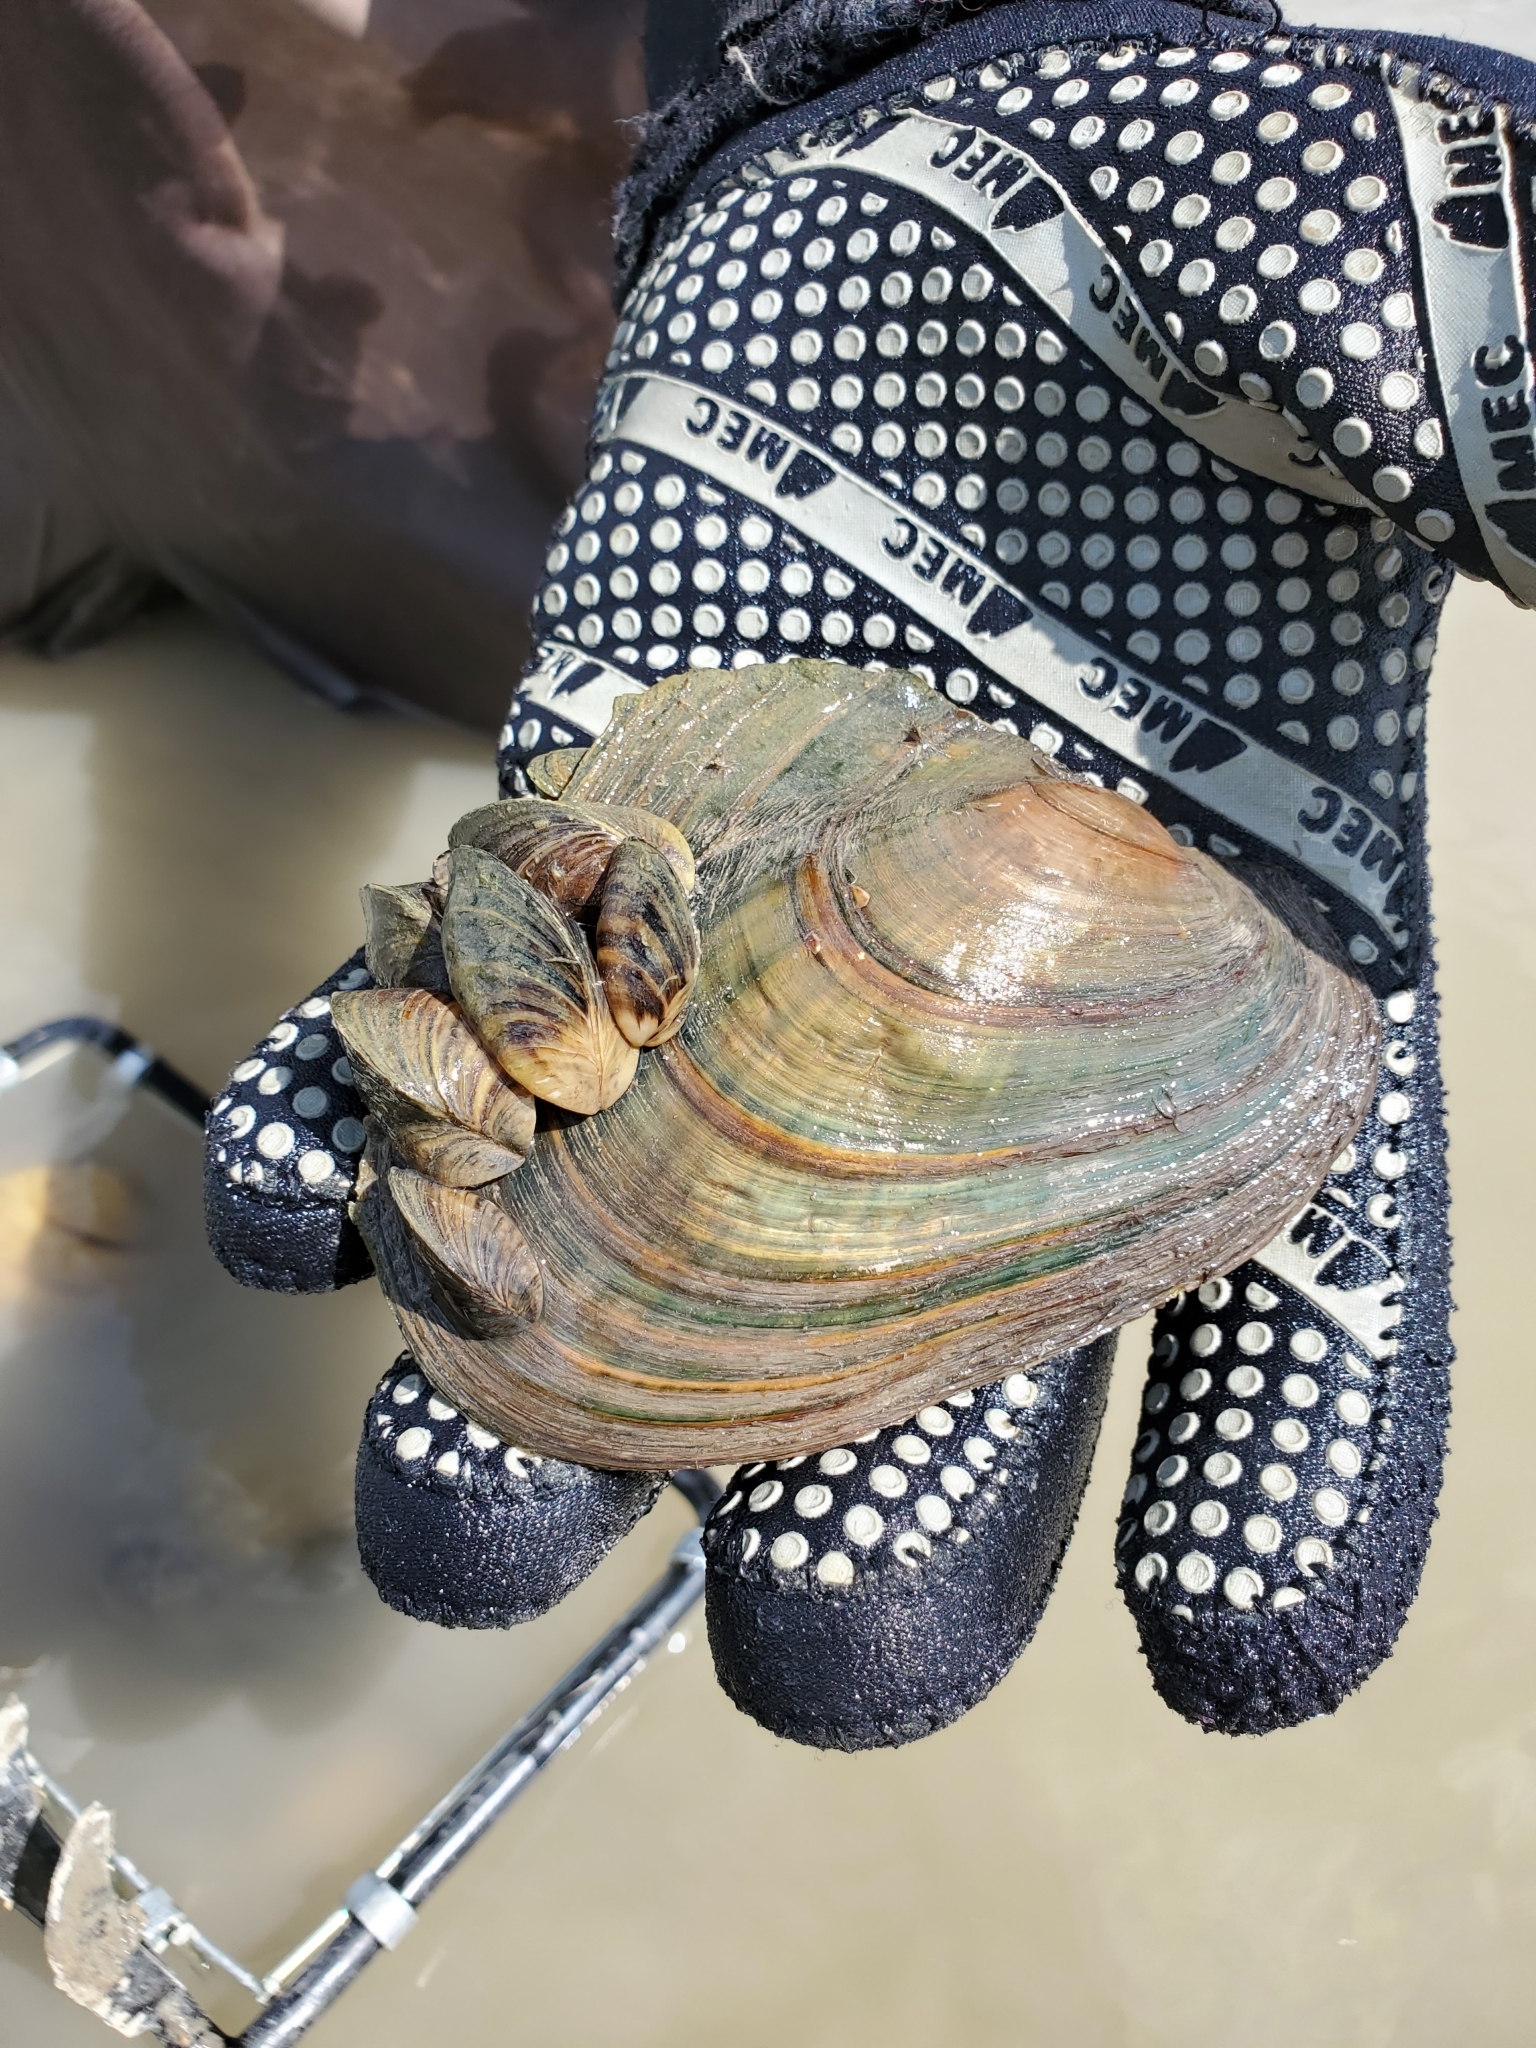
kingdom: Animalia
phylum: Mollusca
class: Bivalvia
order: Myida
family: Dreissenidae
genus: Dreissena
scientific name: Dreissena polymorpha
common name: Zebra mussel
